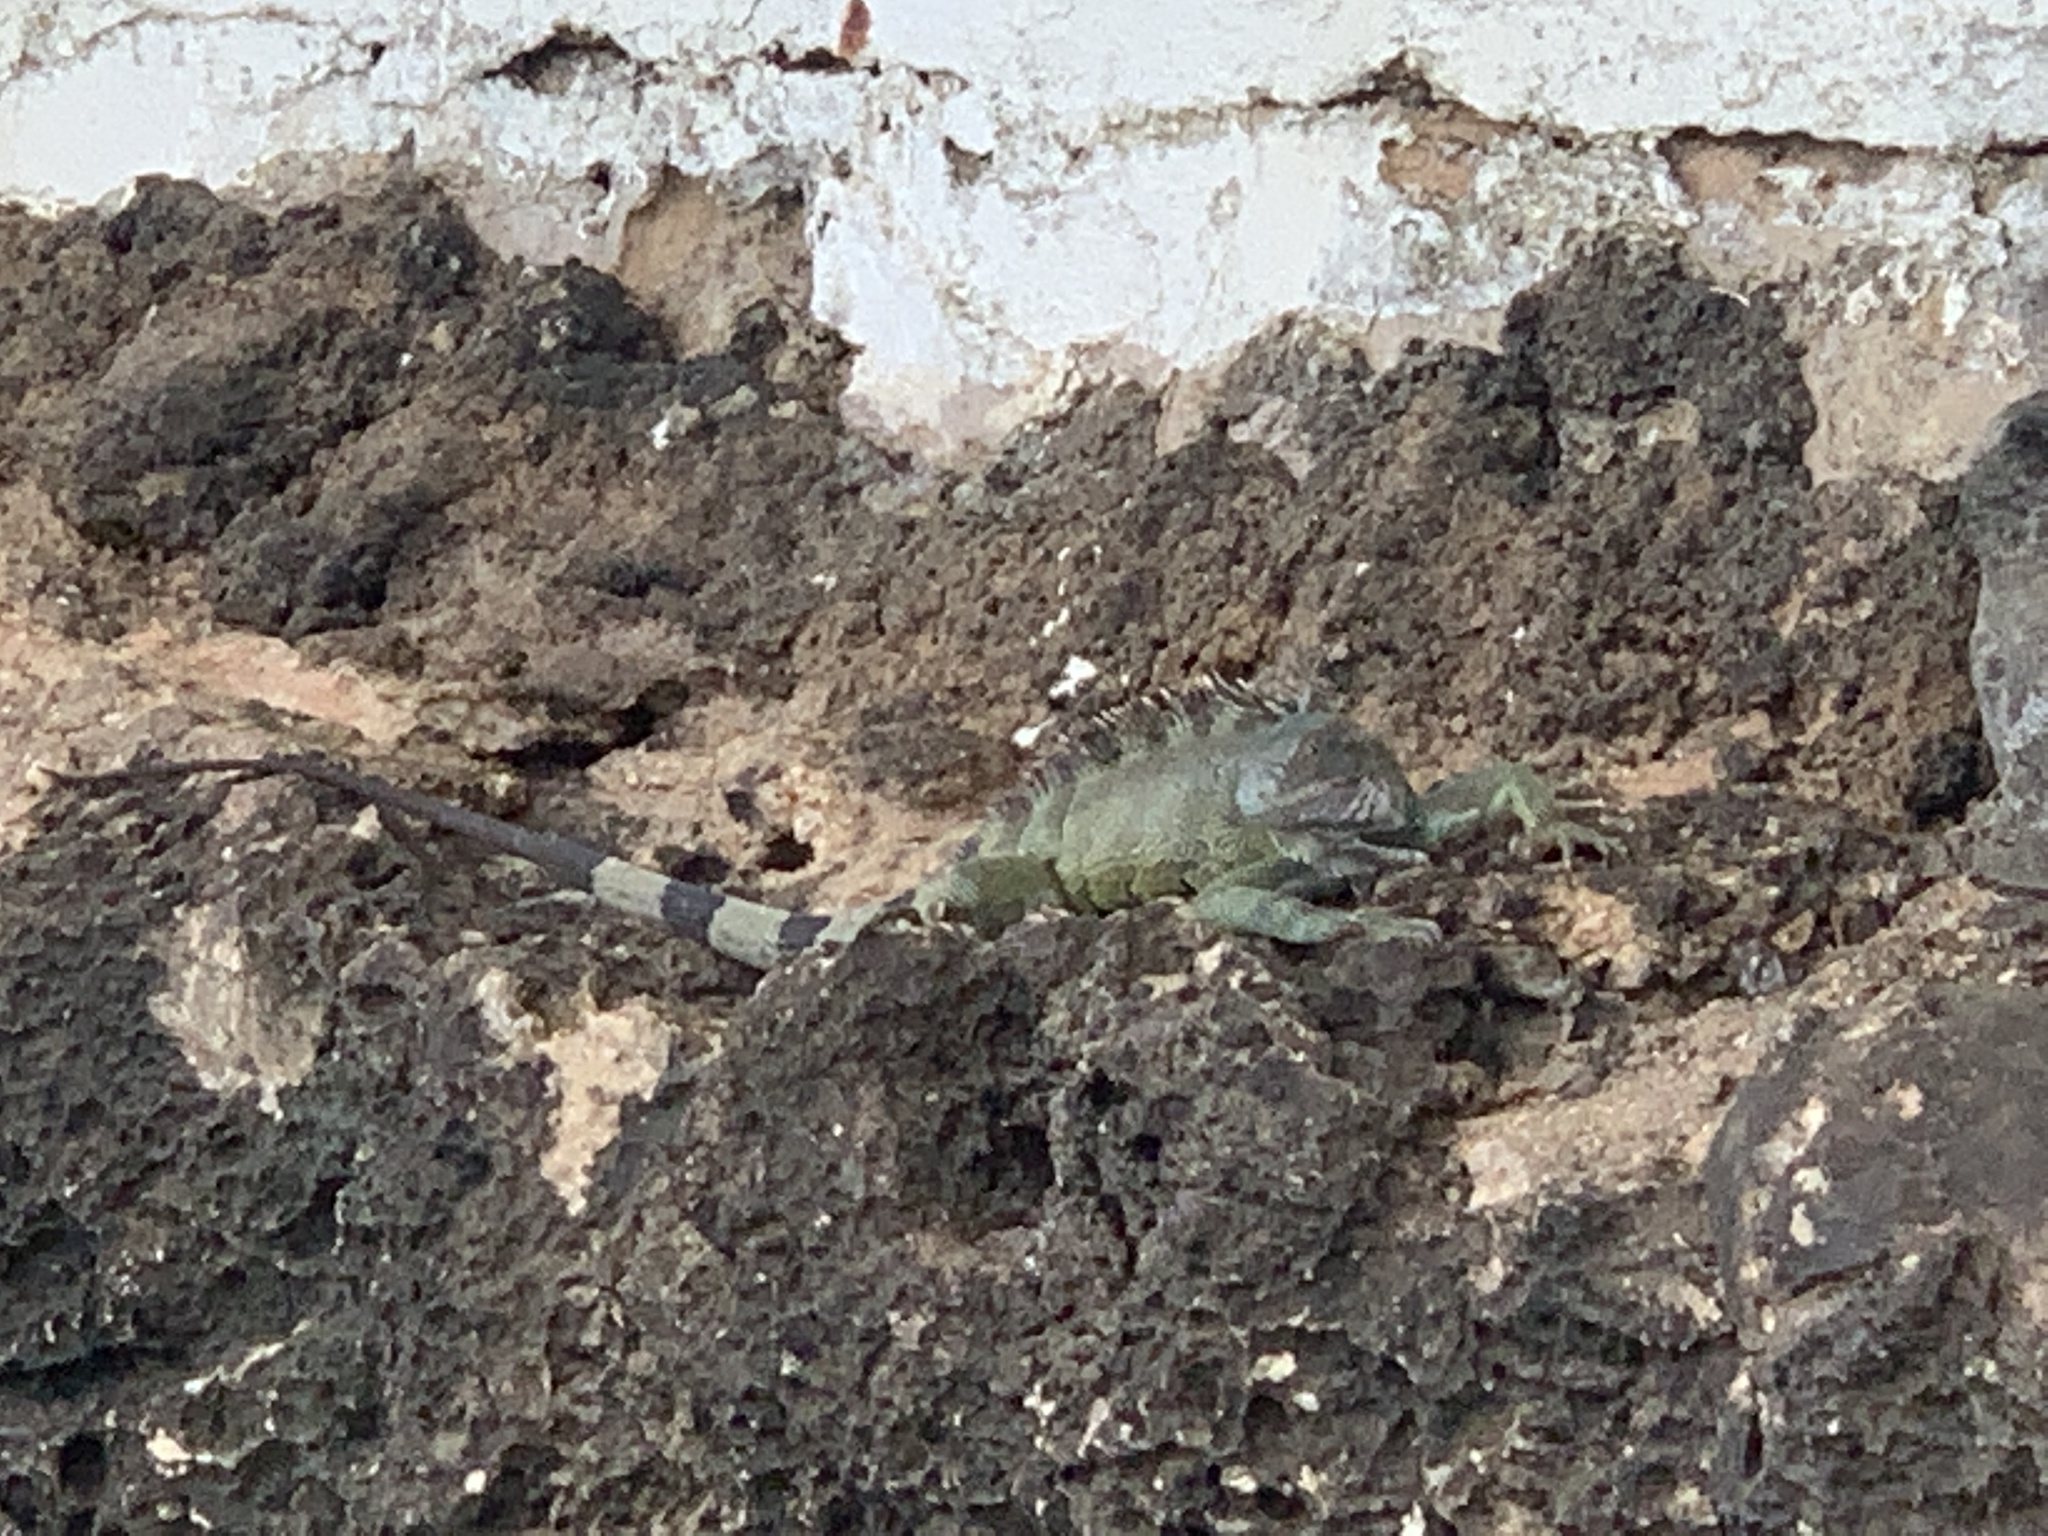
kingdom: Animalia
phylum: Chordata
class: Squamata
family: Iguanidae
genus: Iguana
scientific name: Iguana iguana
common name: Green iguana
